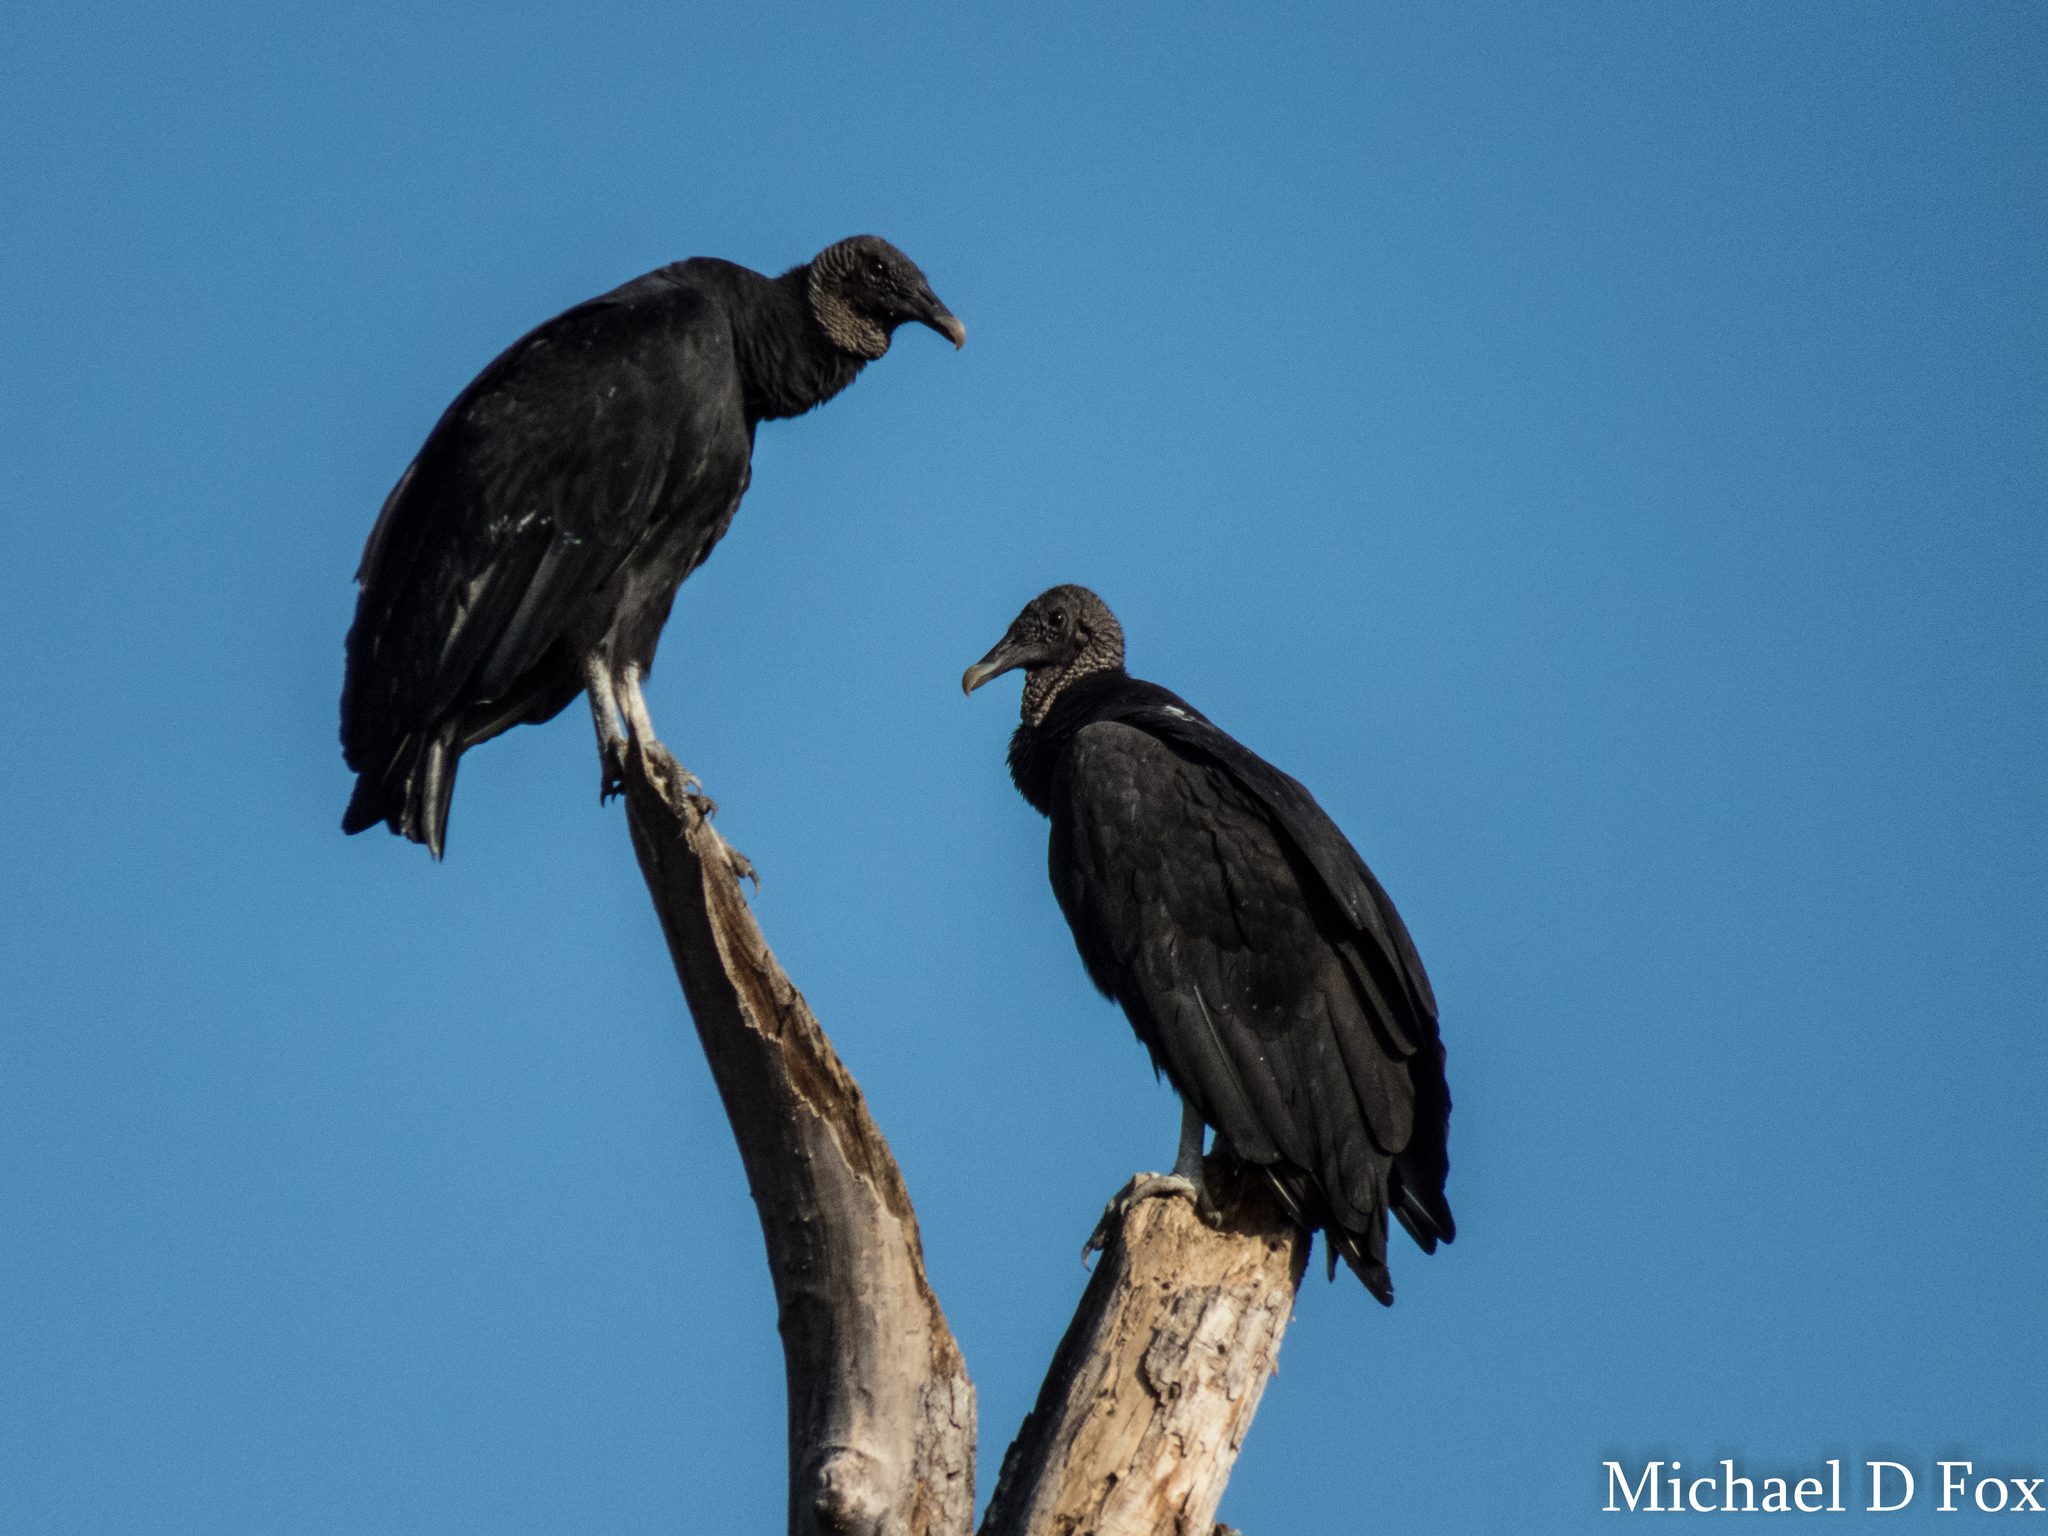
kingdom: Animalia
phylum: Chordata
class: Aves
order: Accipitriformes
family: Cathartidae
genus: Coragyps
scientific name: Coragyps atratus
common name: Black vulture
